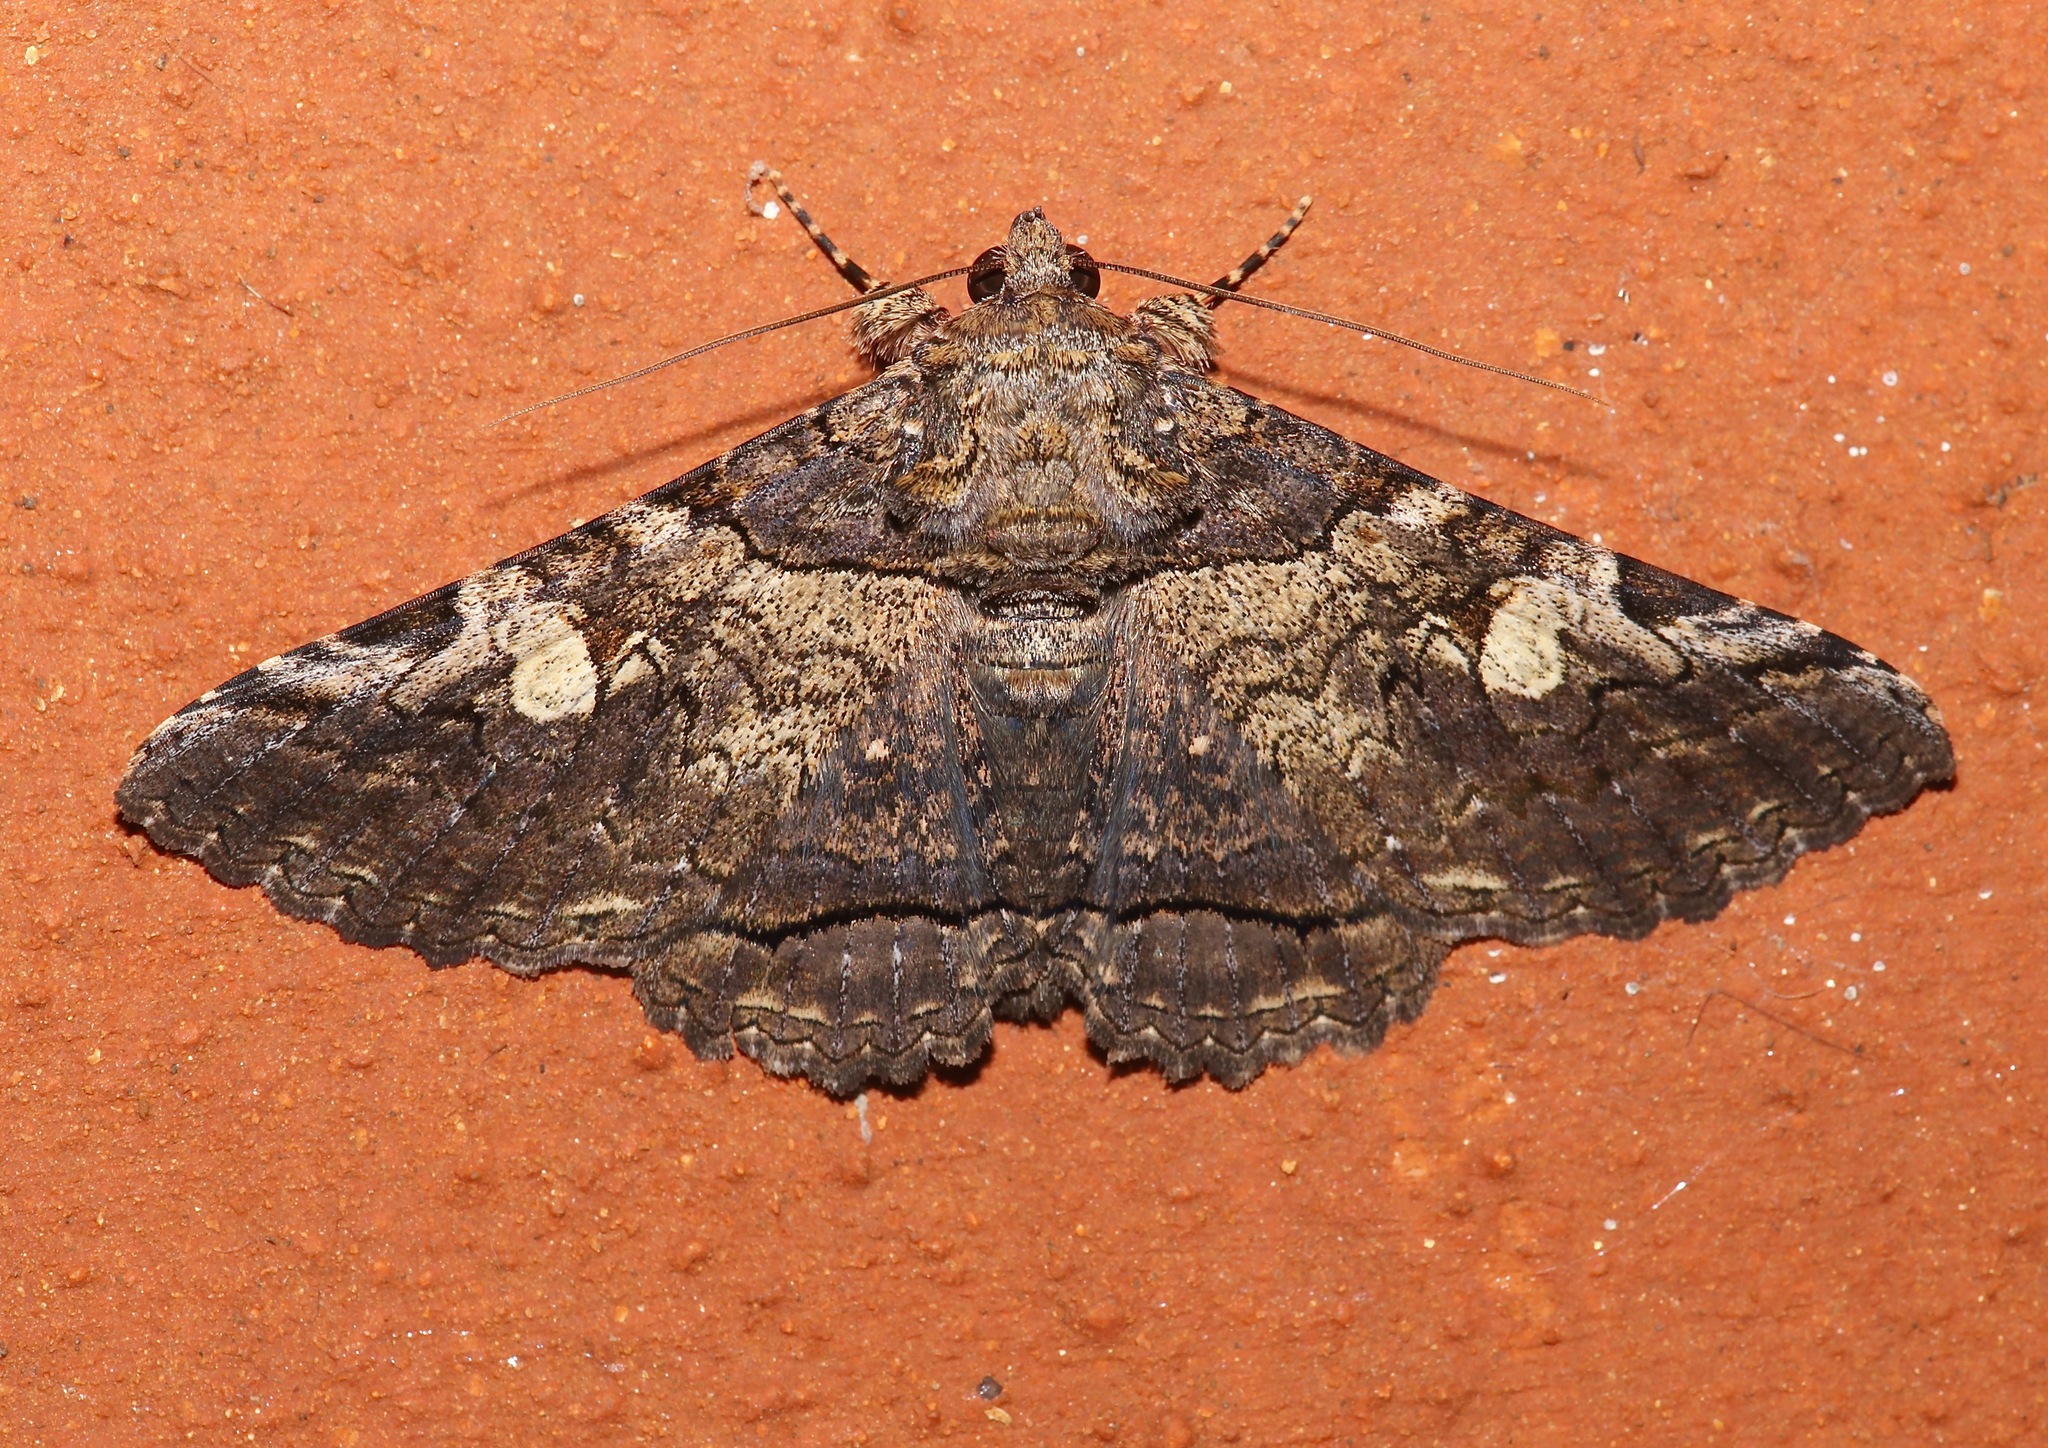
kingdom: Animalia
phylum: Arthropoda
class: Insecta
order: Lepidoptera
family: Erebidae
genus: Safia
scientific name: Safia aperta
